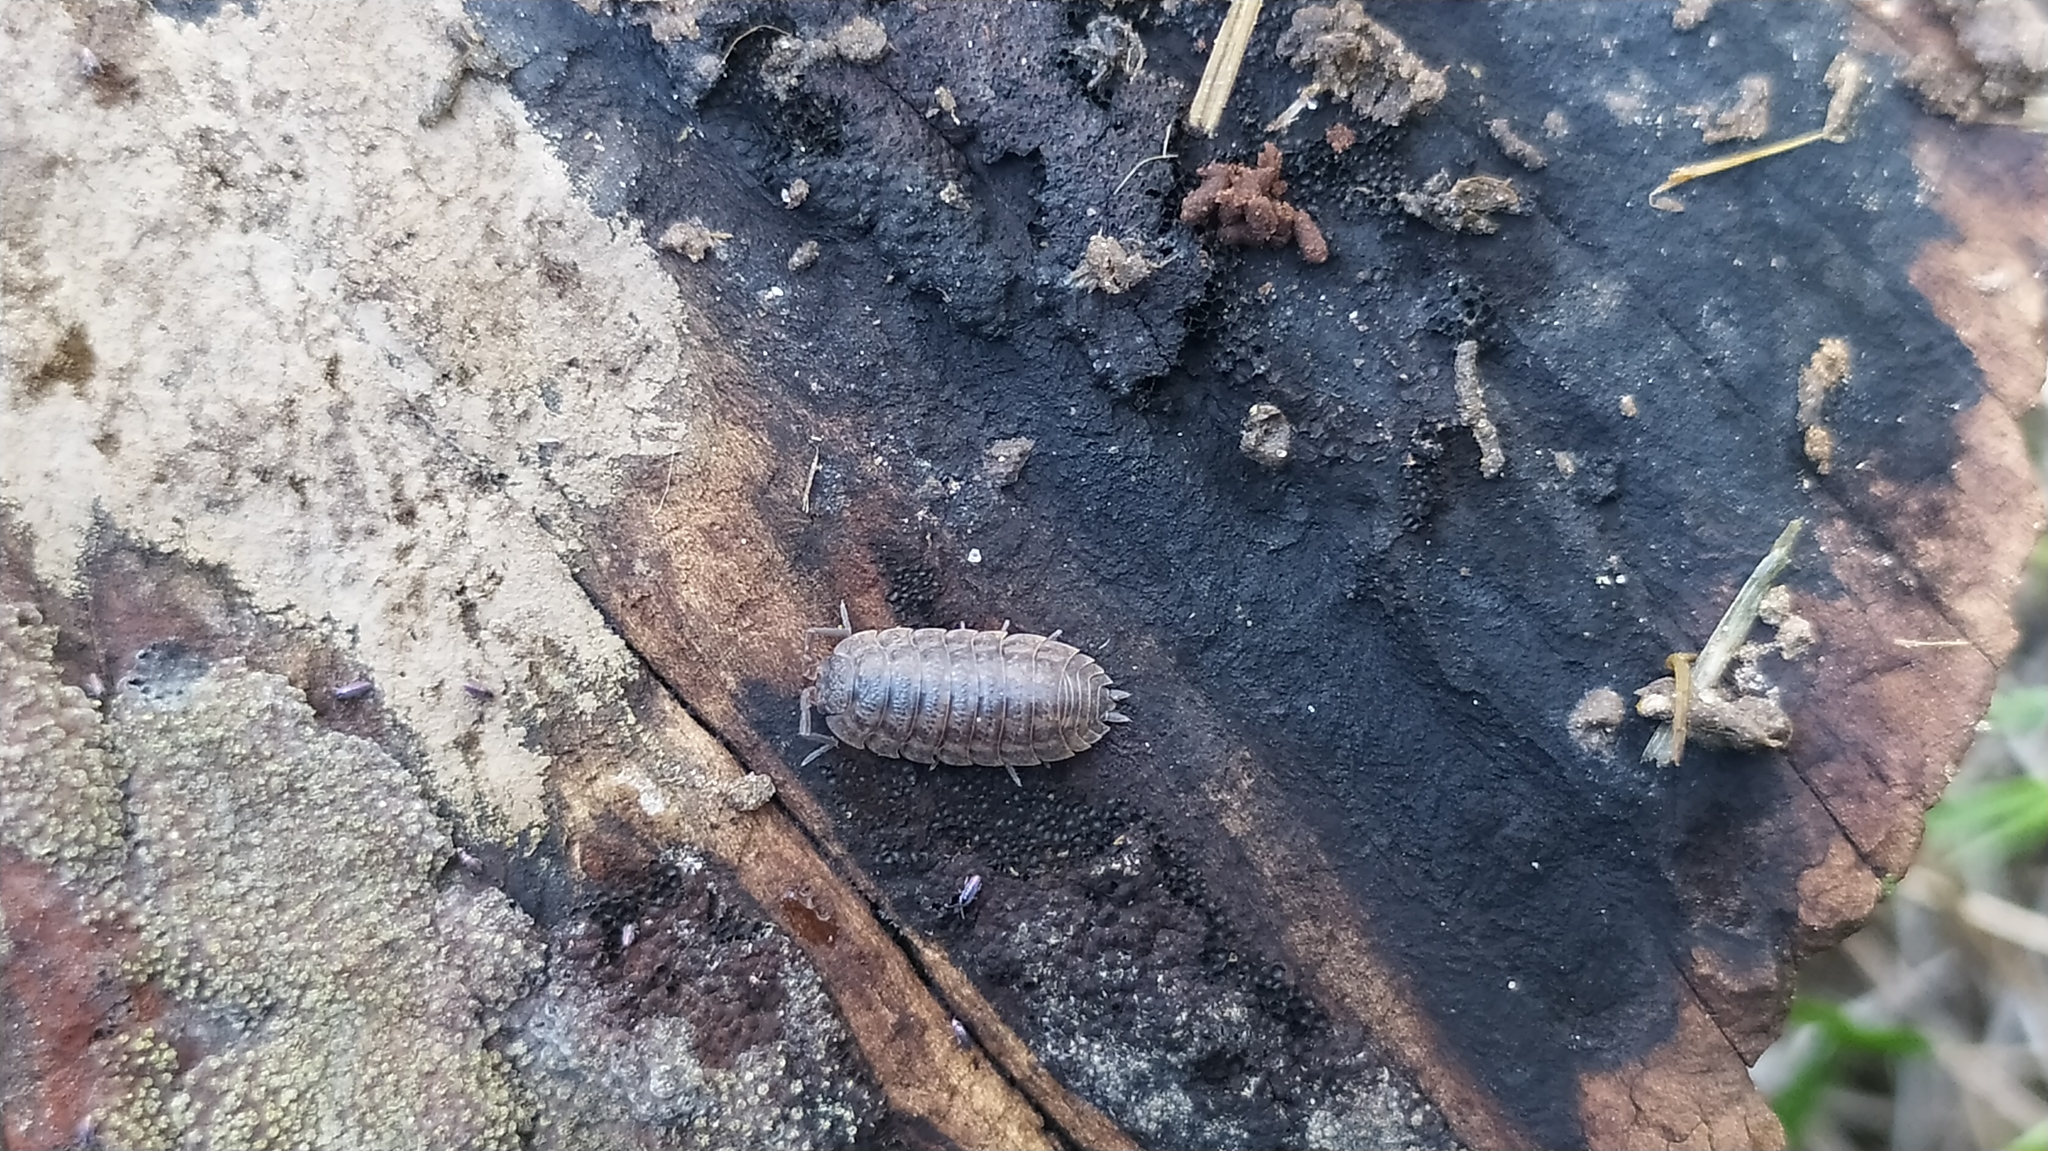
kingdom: Animalia
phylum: Arthropoda
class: Malacostraca
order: Isopoda
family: Trachelipodidae
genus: Trachelipus
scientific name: Trachelipus rathkii
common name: Isopod
